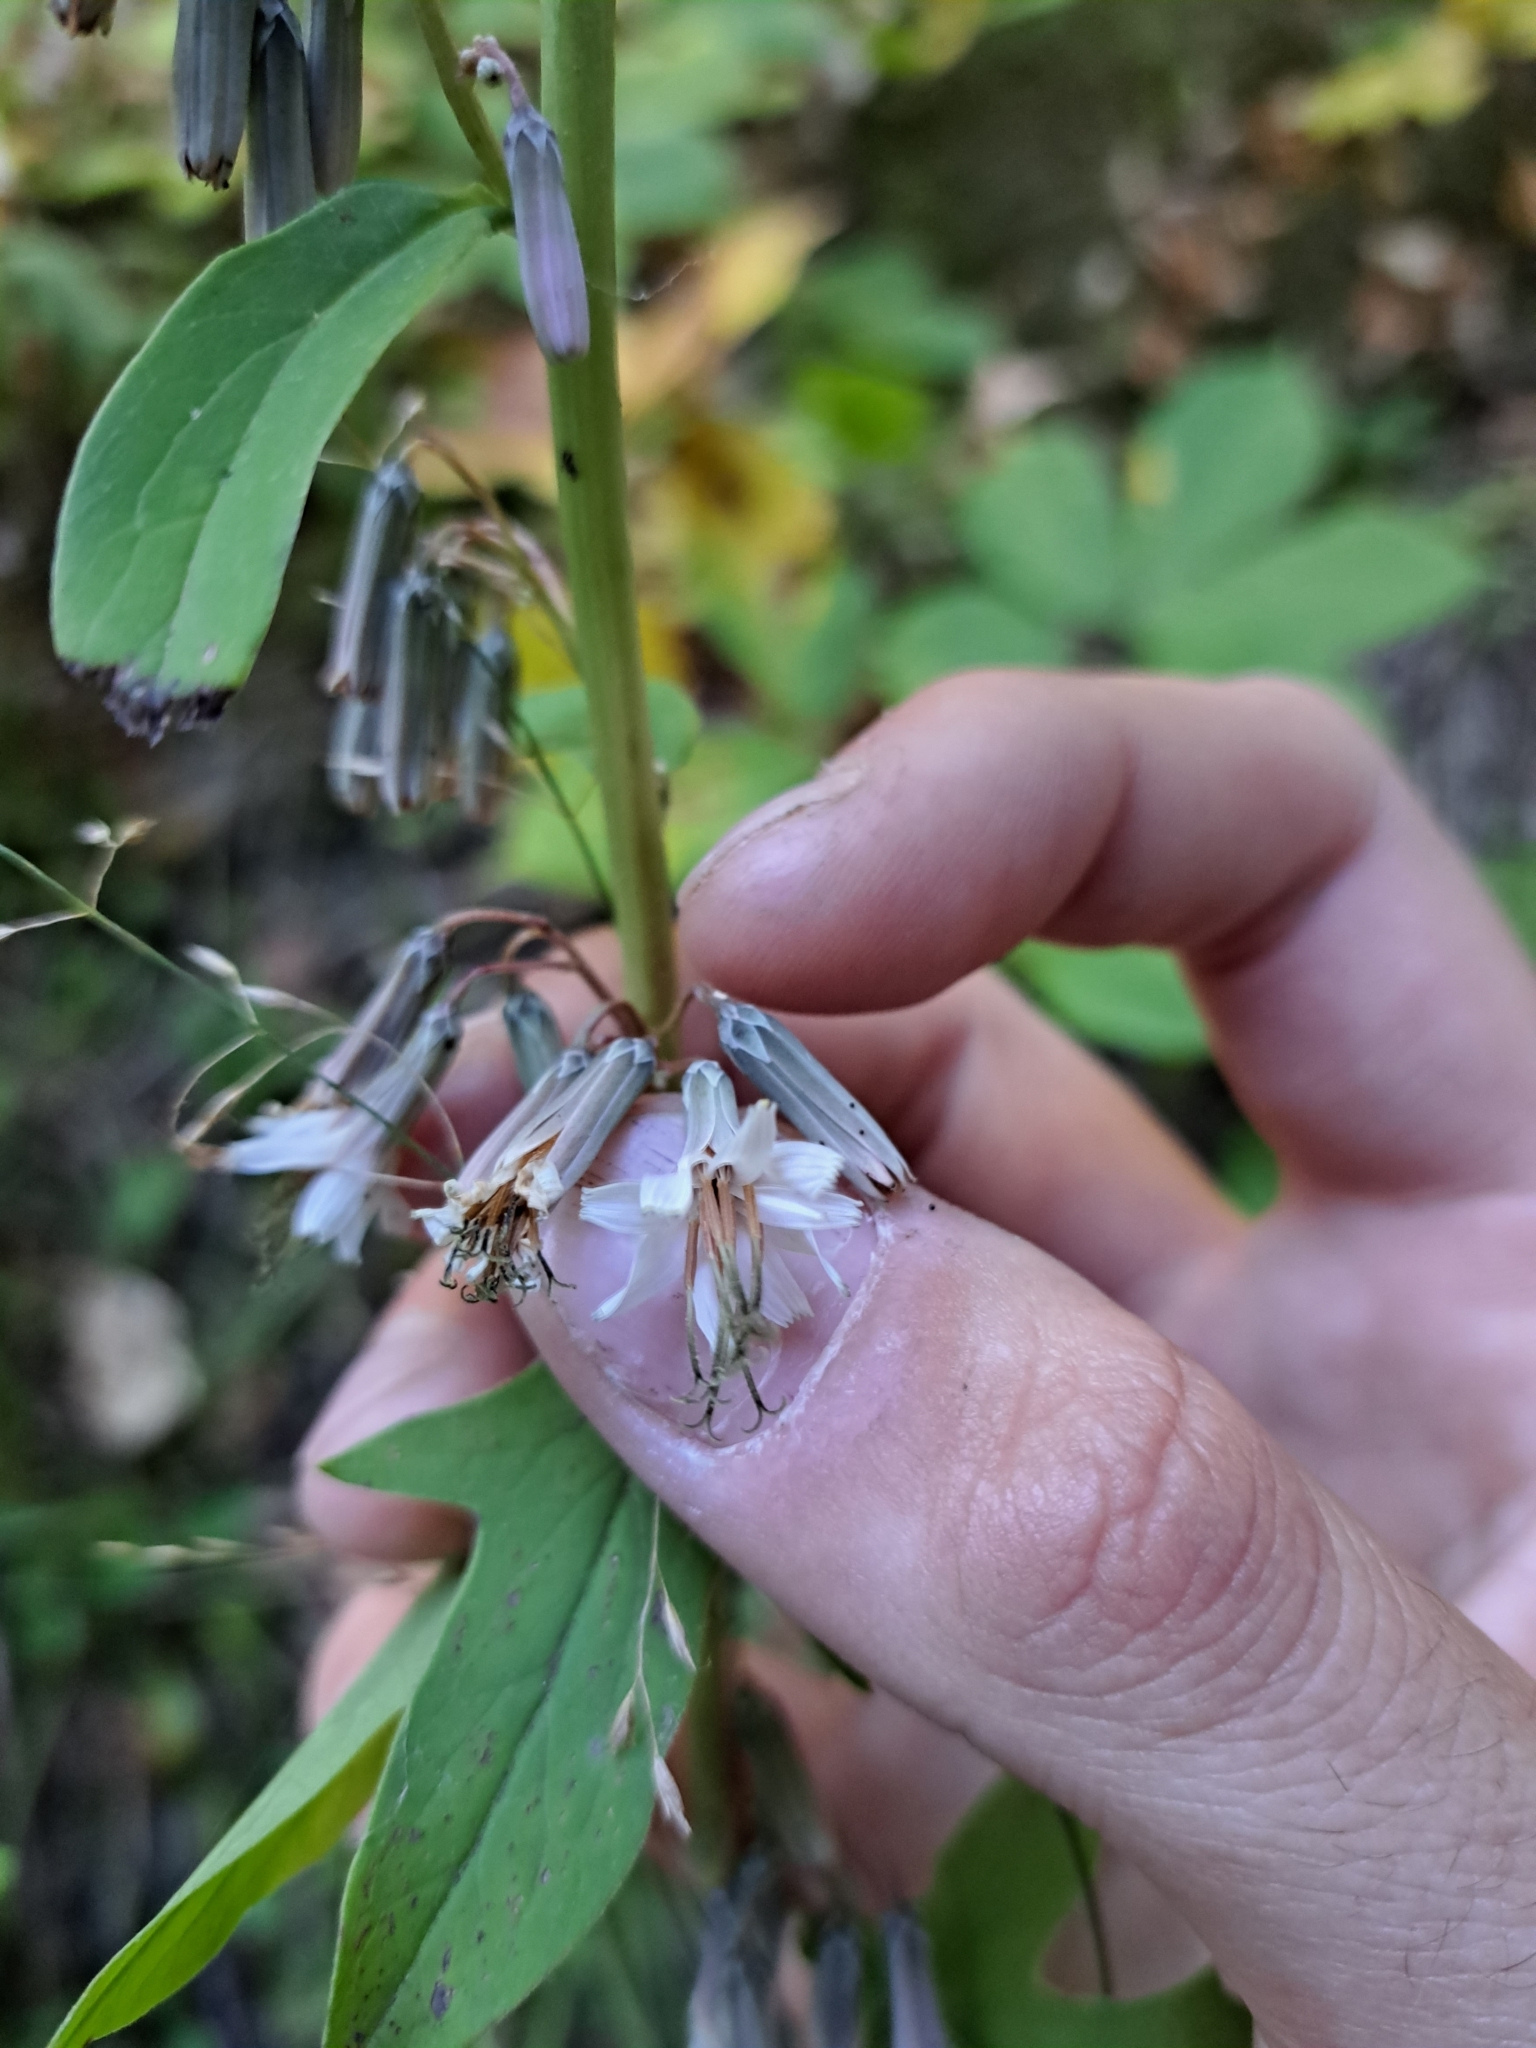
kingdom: Plantae
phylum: Tracheophyta
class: Magnoliopsida
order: Asterales
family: Asteraceae
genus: Nabalus
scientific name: Nabalus albus
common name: White rattlesnakeroot
